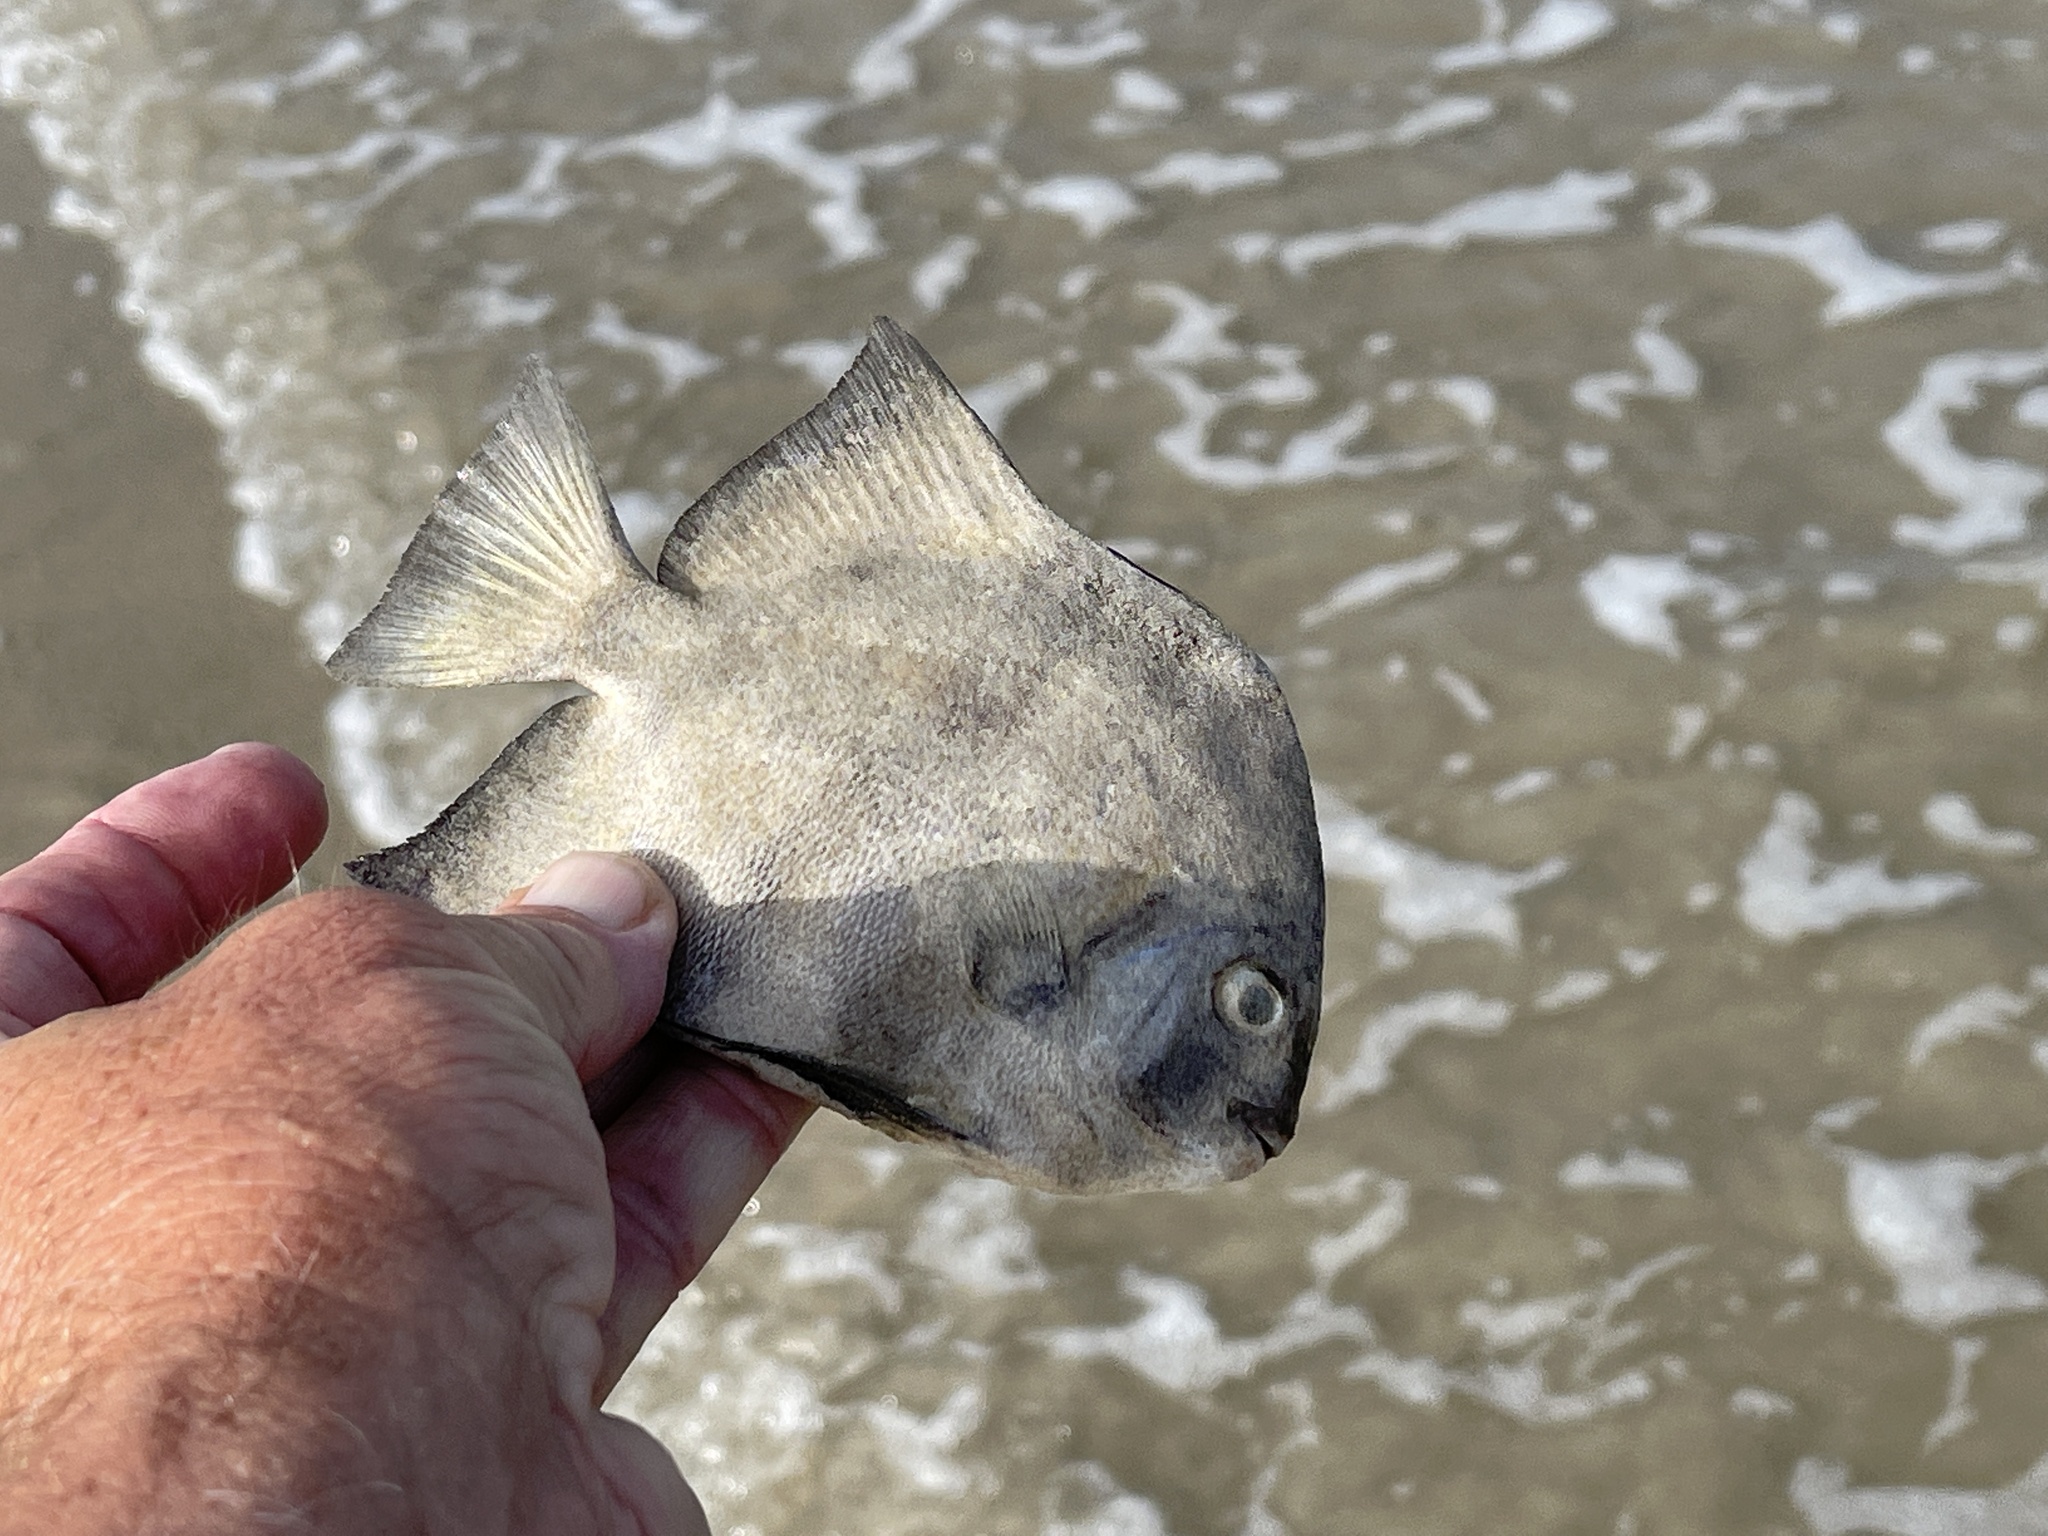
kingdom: Animalia
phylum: Chordata
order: Perciformes
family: Ephippidae
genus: Chaetodipterus
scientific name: Chaetodipterus faber
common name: Ocean cobbler
